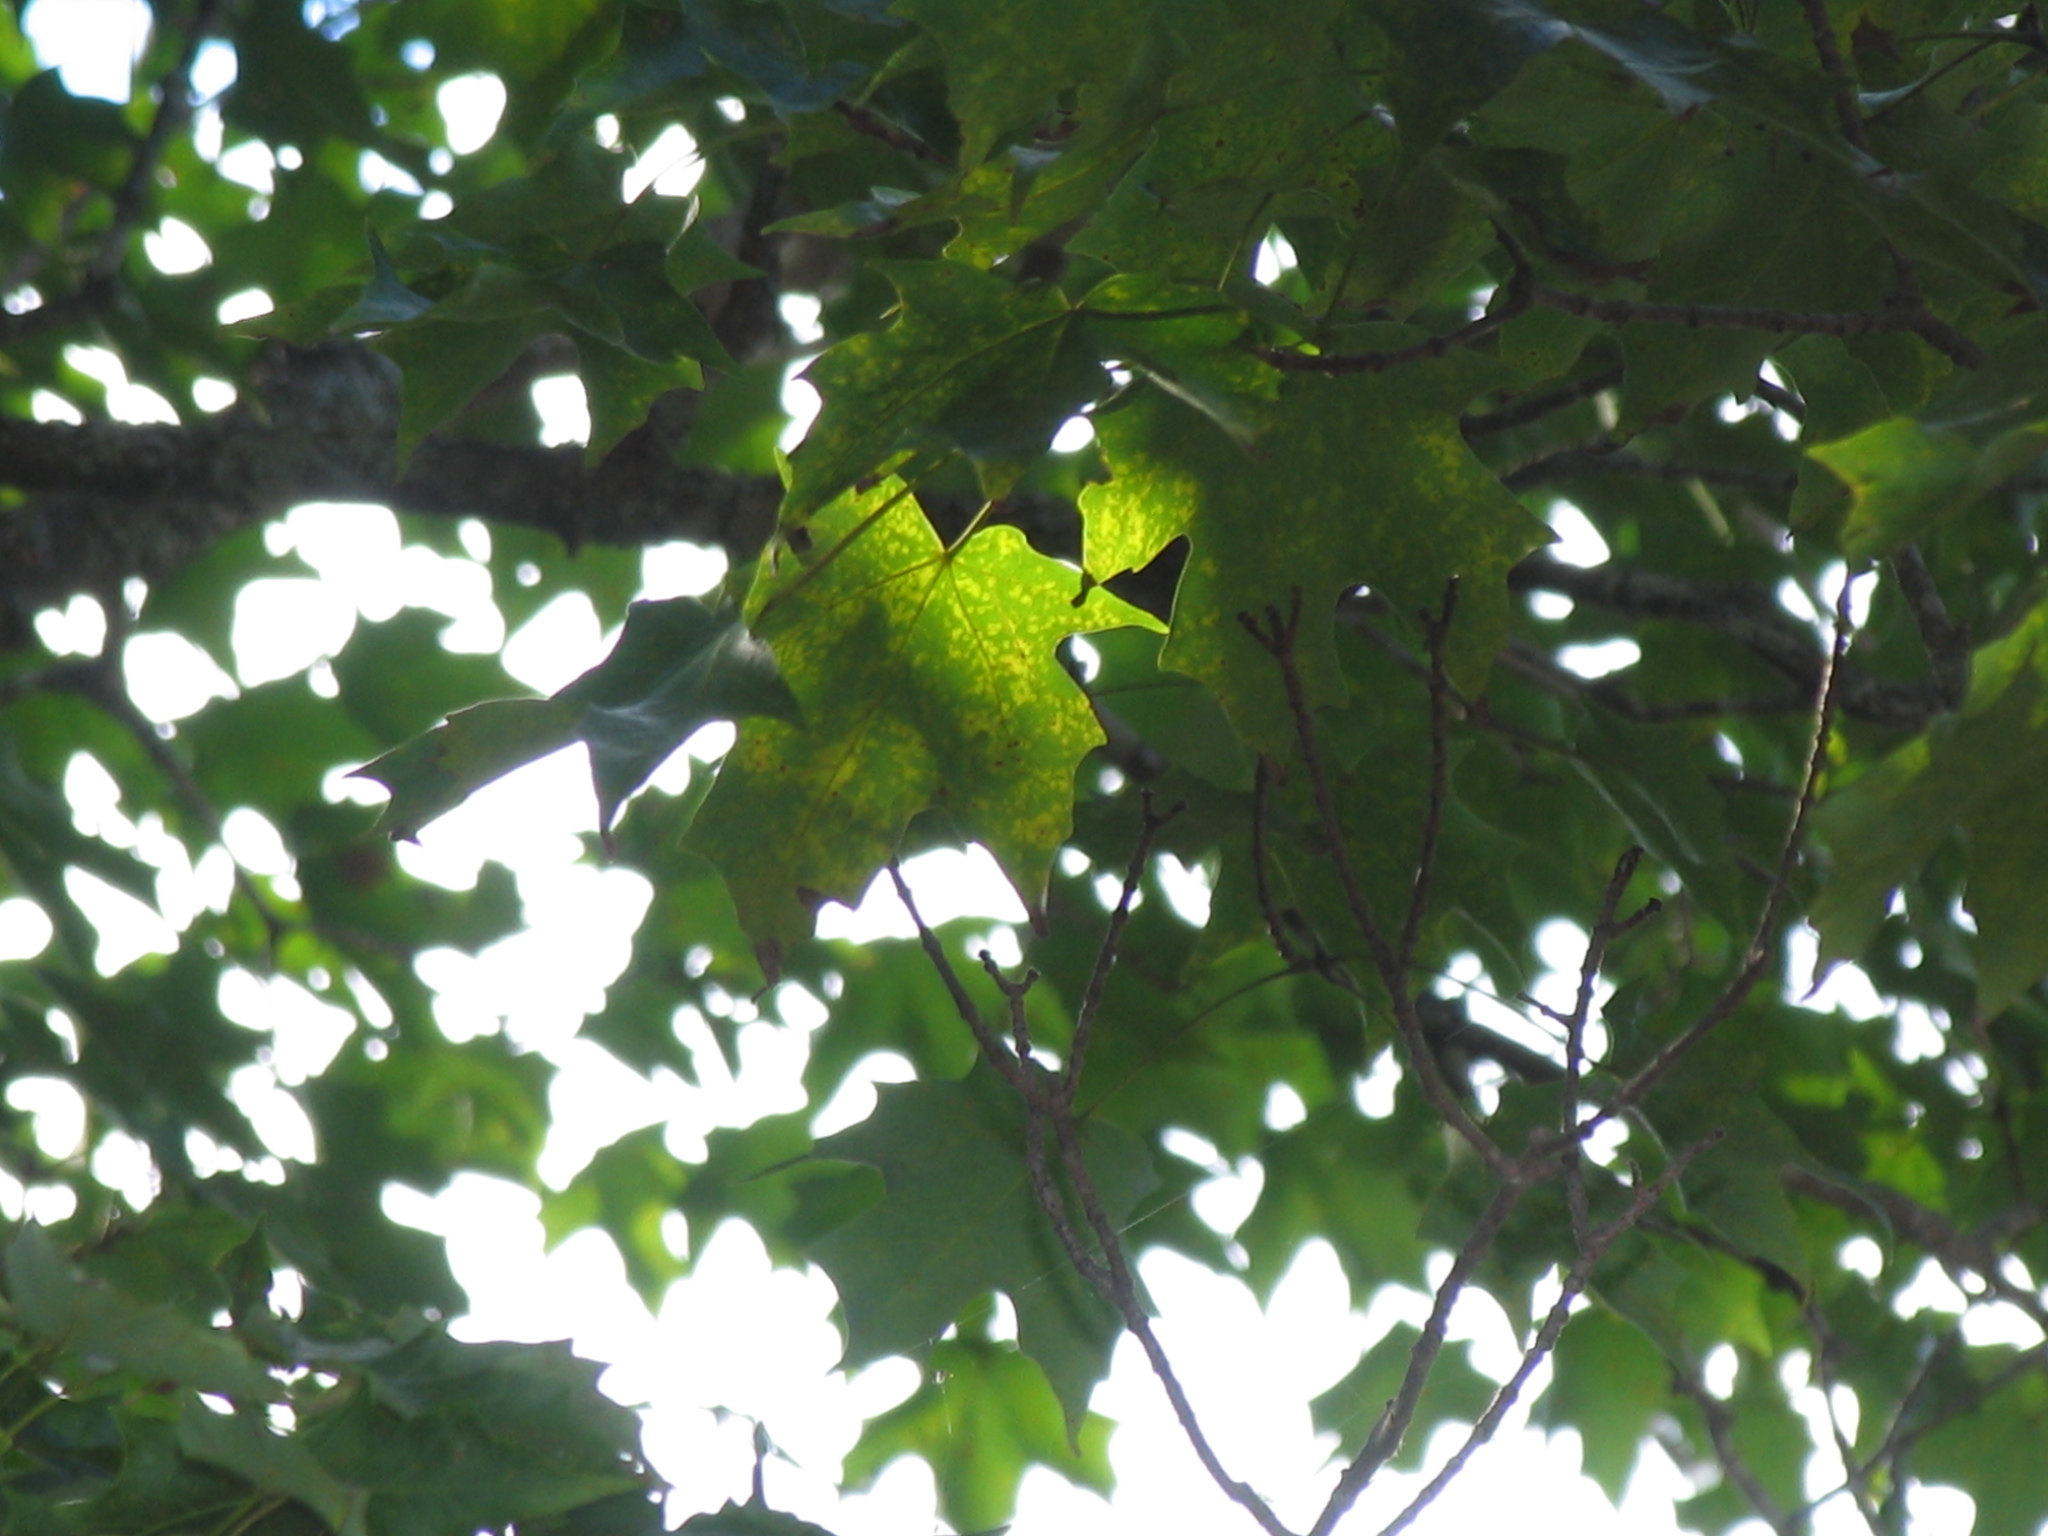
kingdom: Plantae
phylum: Tracheophyta
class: Magnoliopsida
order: Sapindales
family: Sapindaceae
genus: Acer
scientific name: Acer saccharum
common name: Sugar maple
